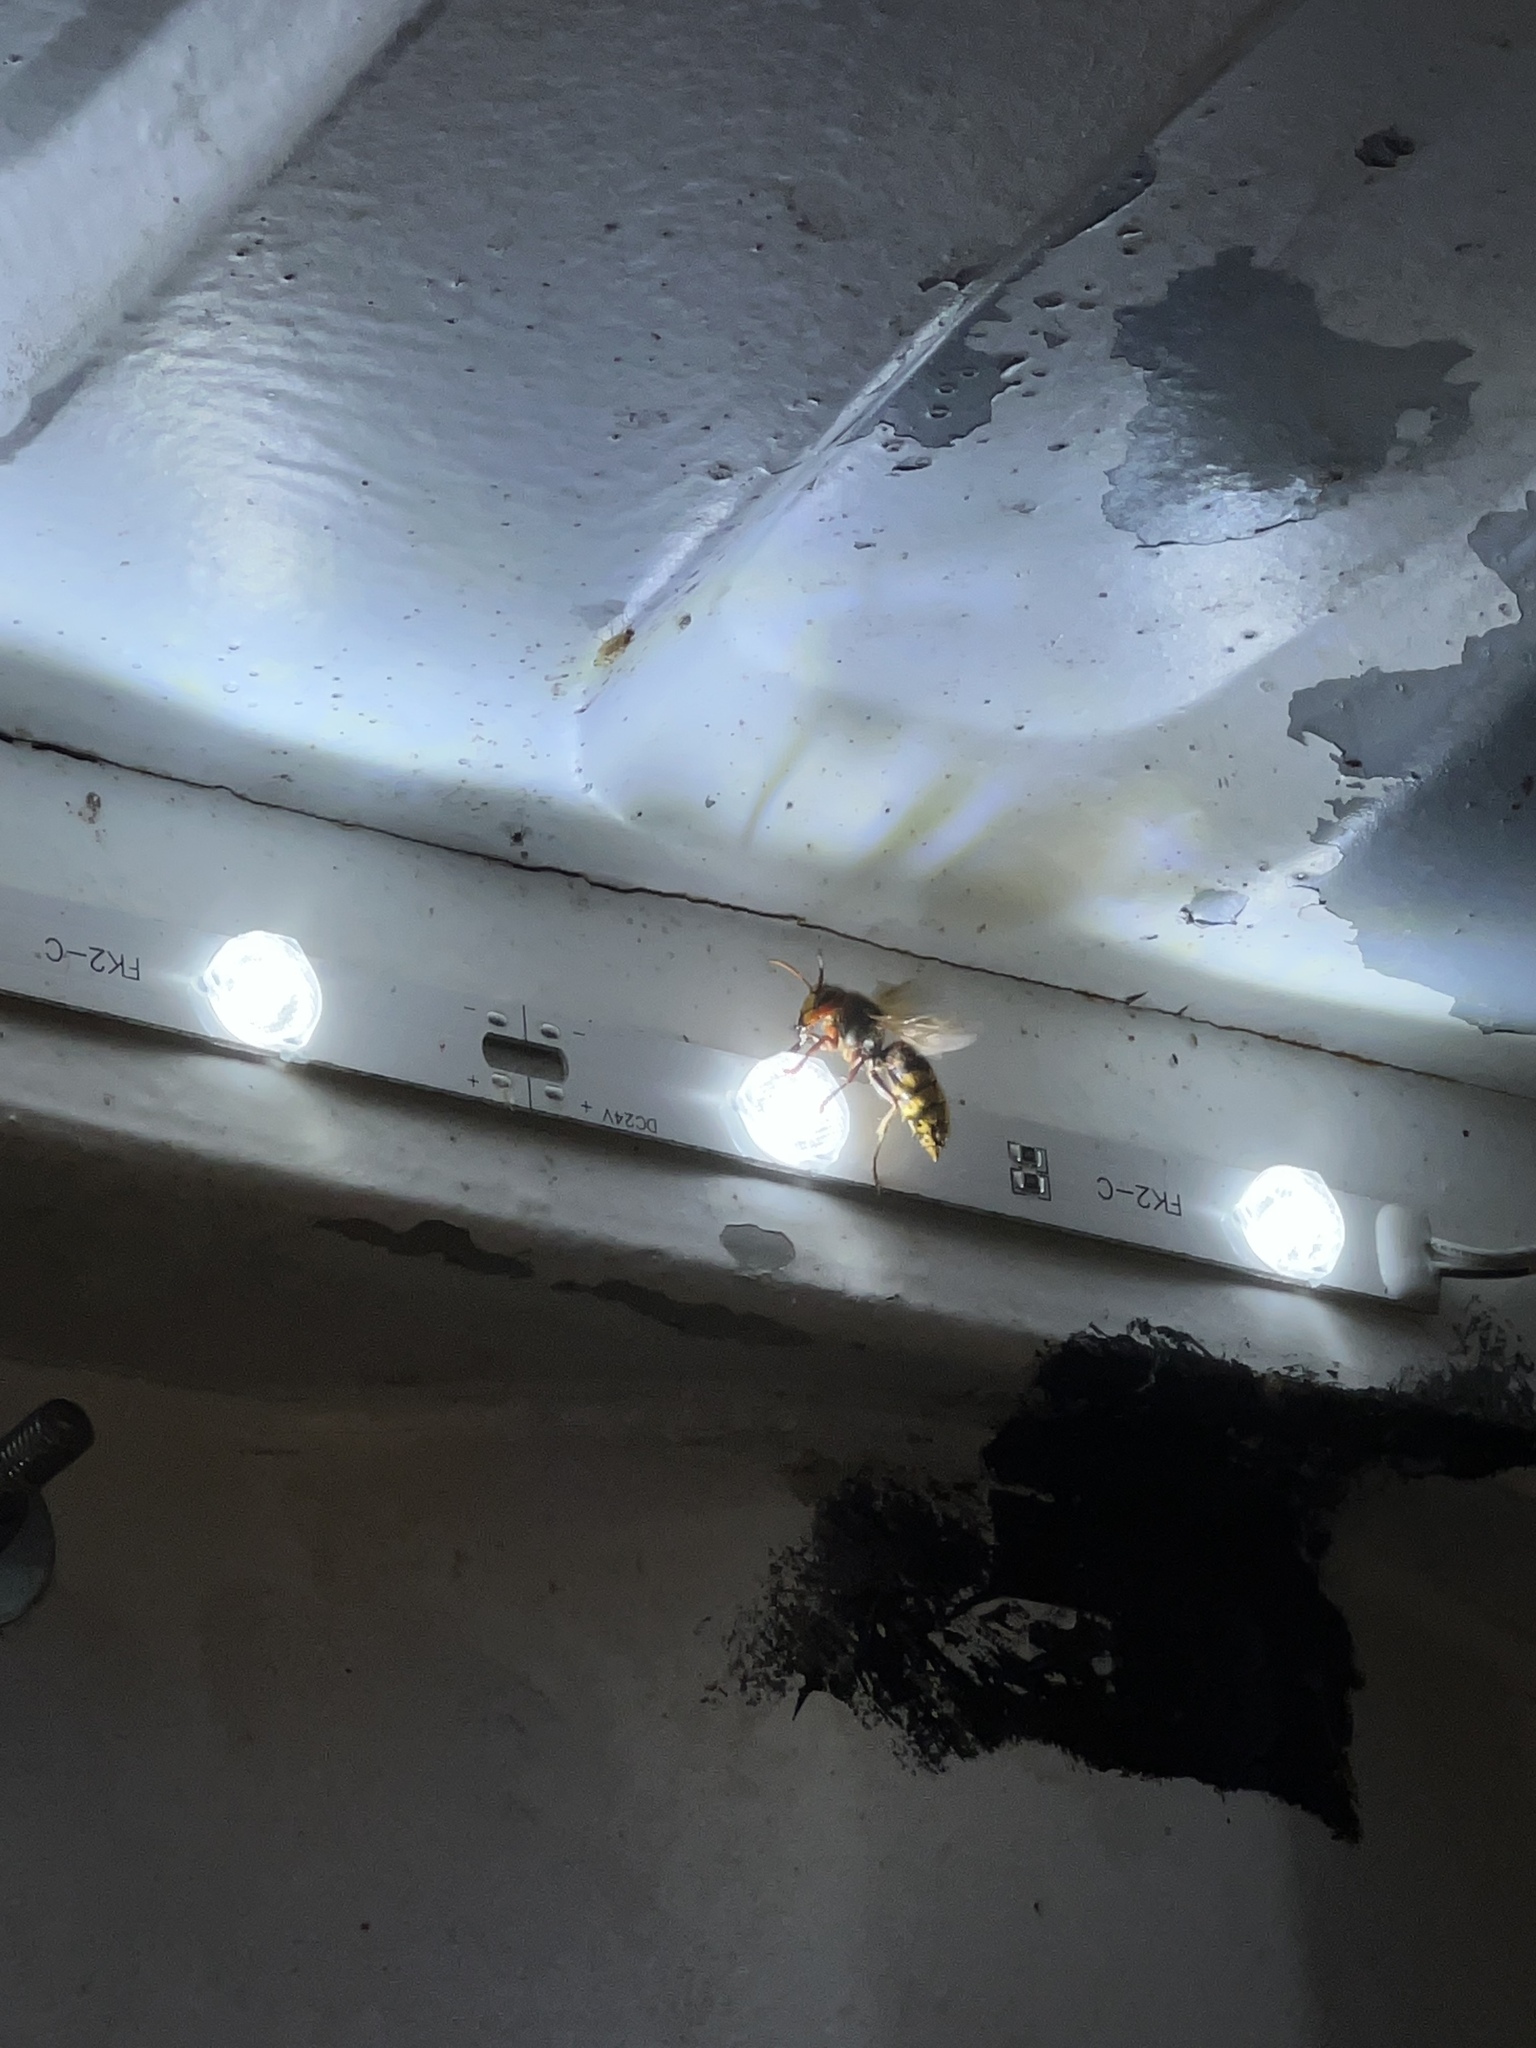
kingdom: Animalia
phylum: Arthropoda
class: Insecta
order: Hymenoptera
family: Vespidae
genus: Vespa
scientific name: Vespa crabro
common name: Hornet
